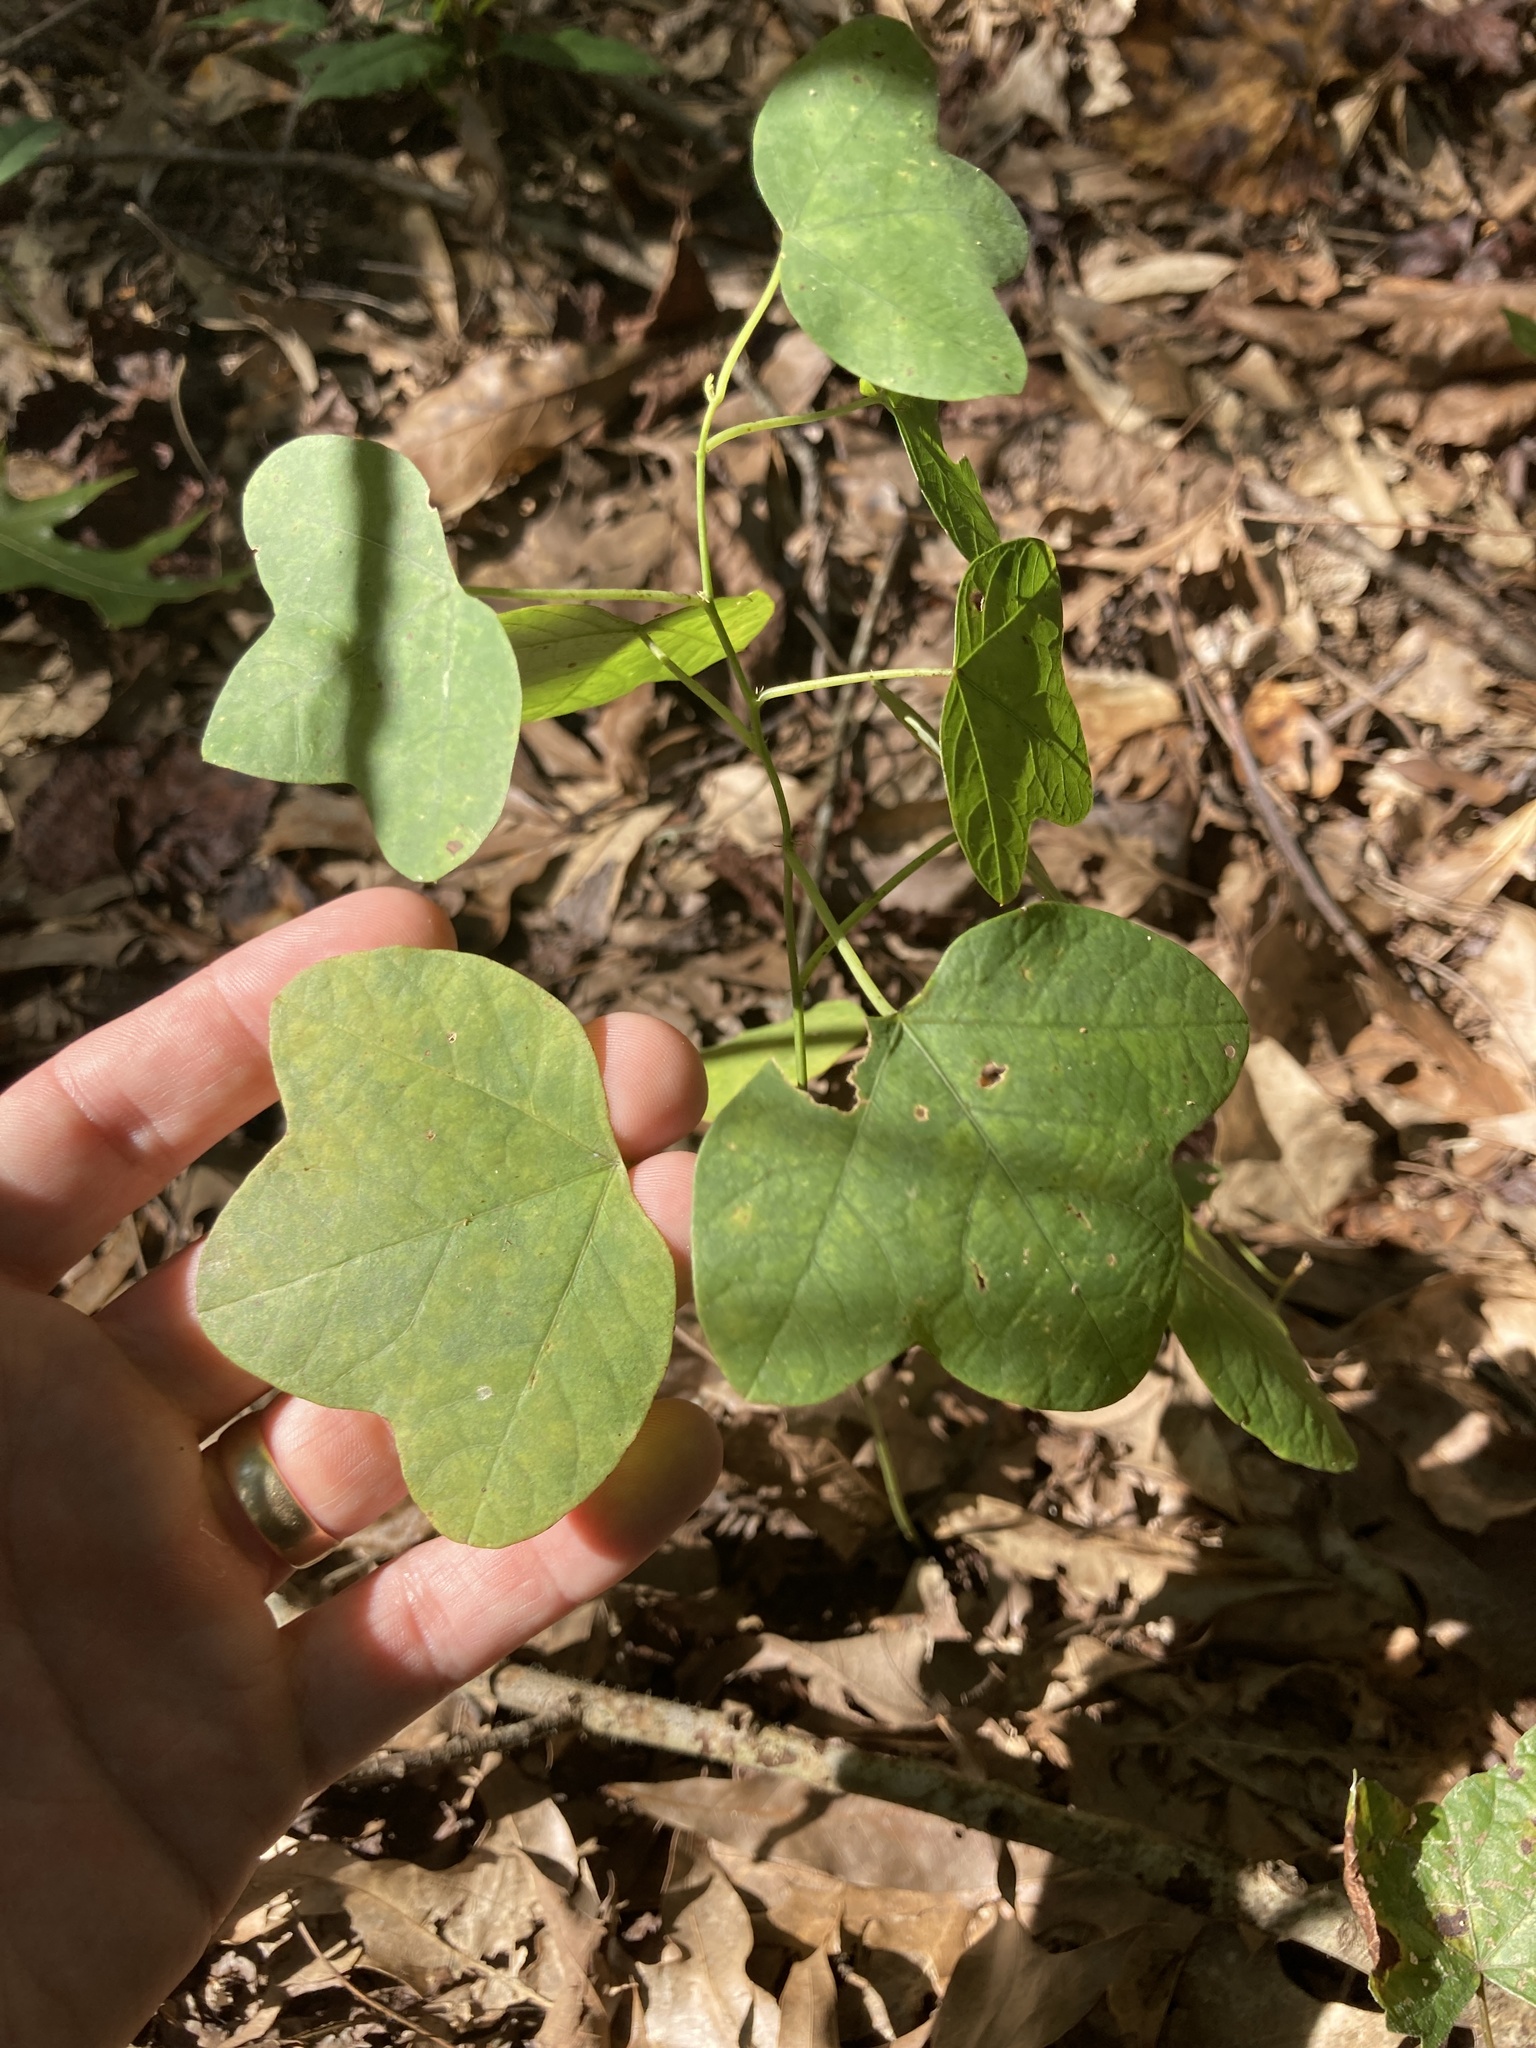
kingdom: Plantae
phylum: Tracheophyta
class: Magnoliopsida
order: Malpighiales
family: Passifloraceae
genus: Passiflora
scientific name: Passiflora lutea
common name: Yellow passionflower
